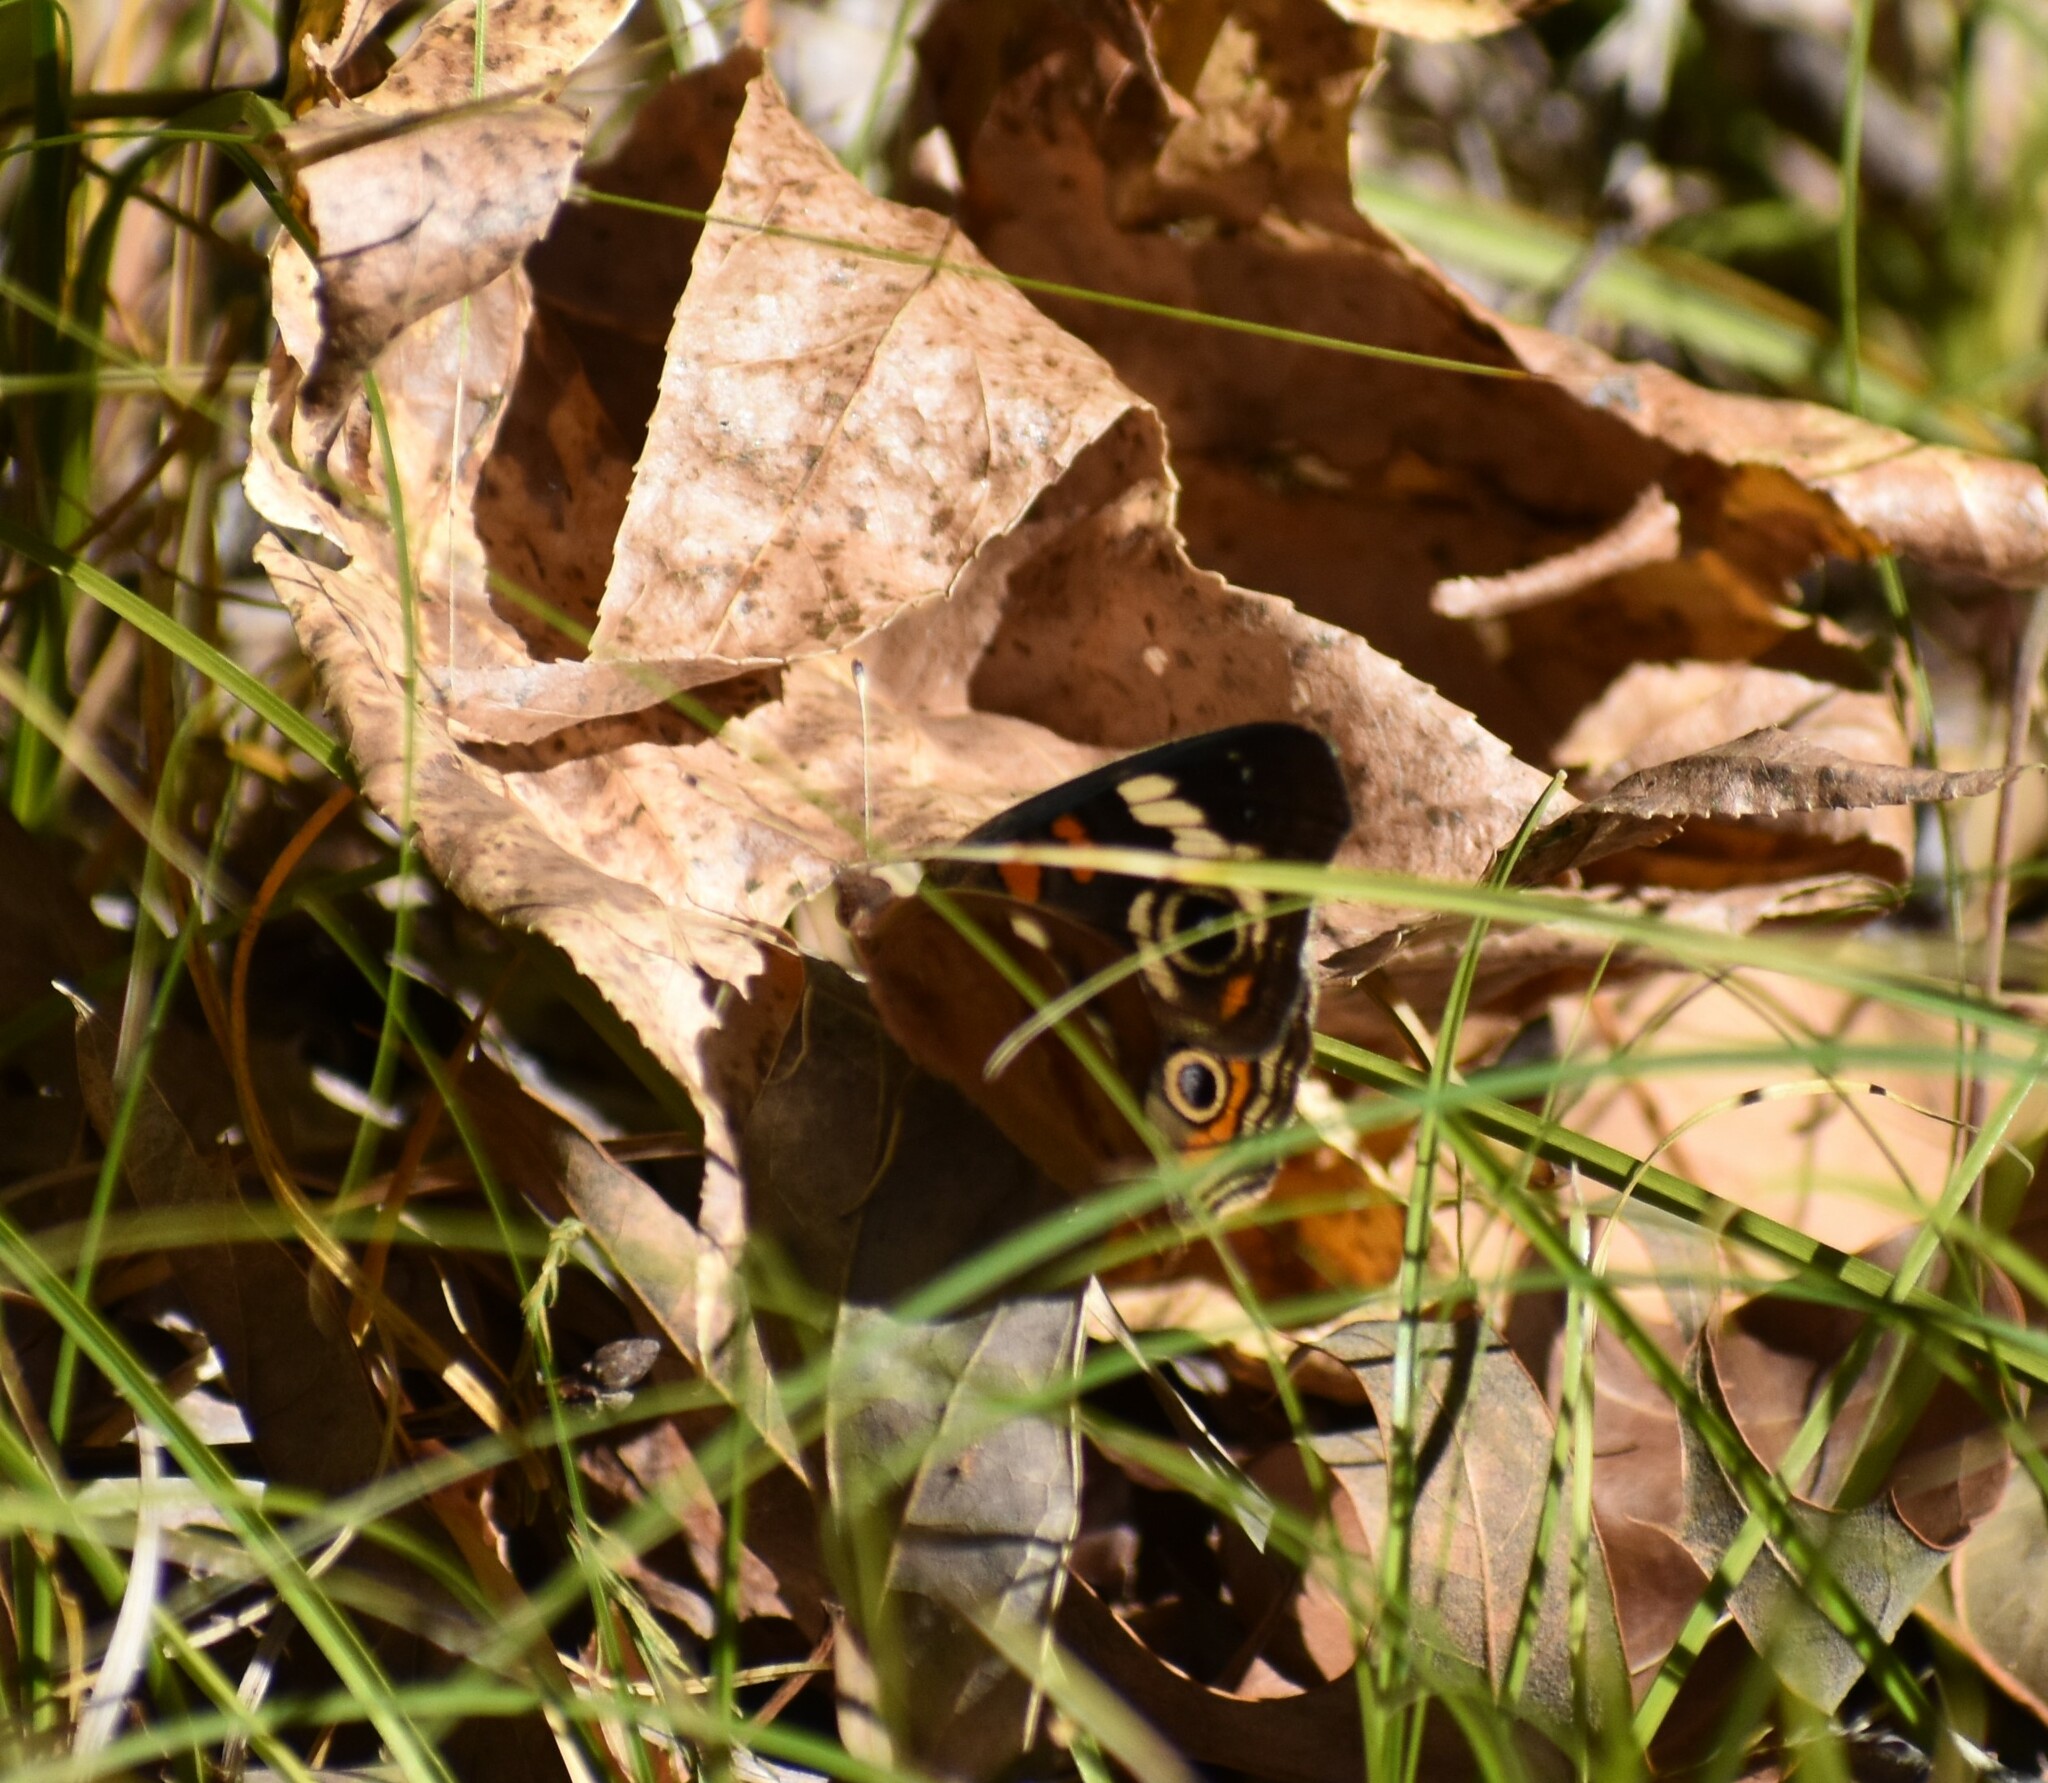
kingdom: Animalia
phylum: Arthropoda
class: Insecta
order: Lepidoptera
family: Nymphalidae
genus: Junonia
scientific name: Junonia coenia
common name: Common buckeye
